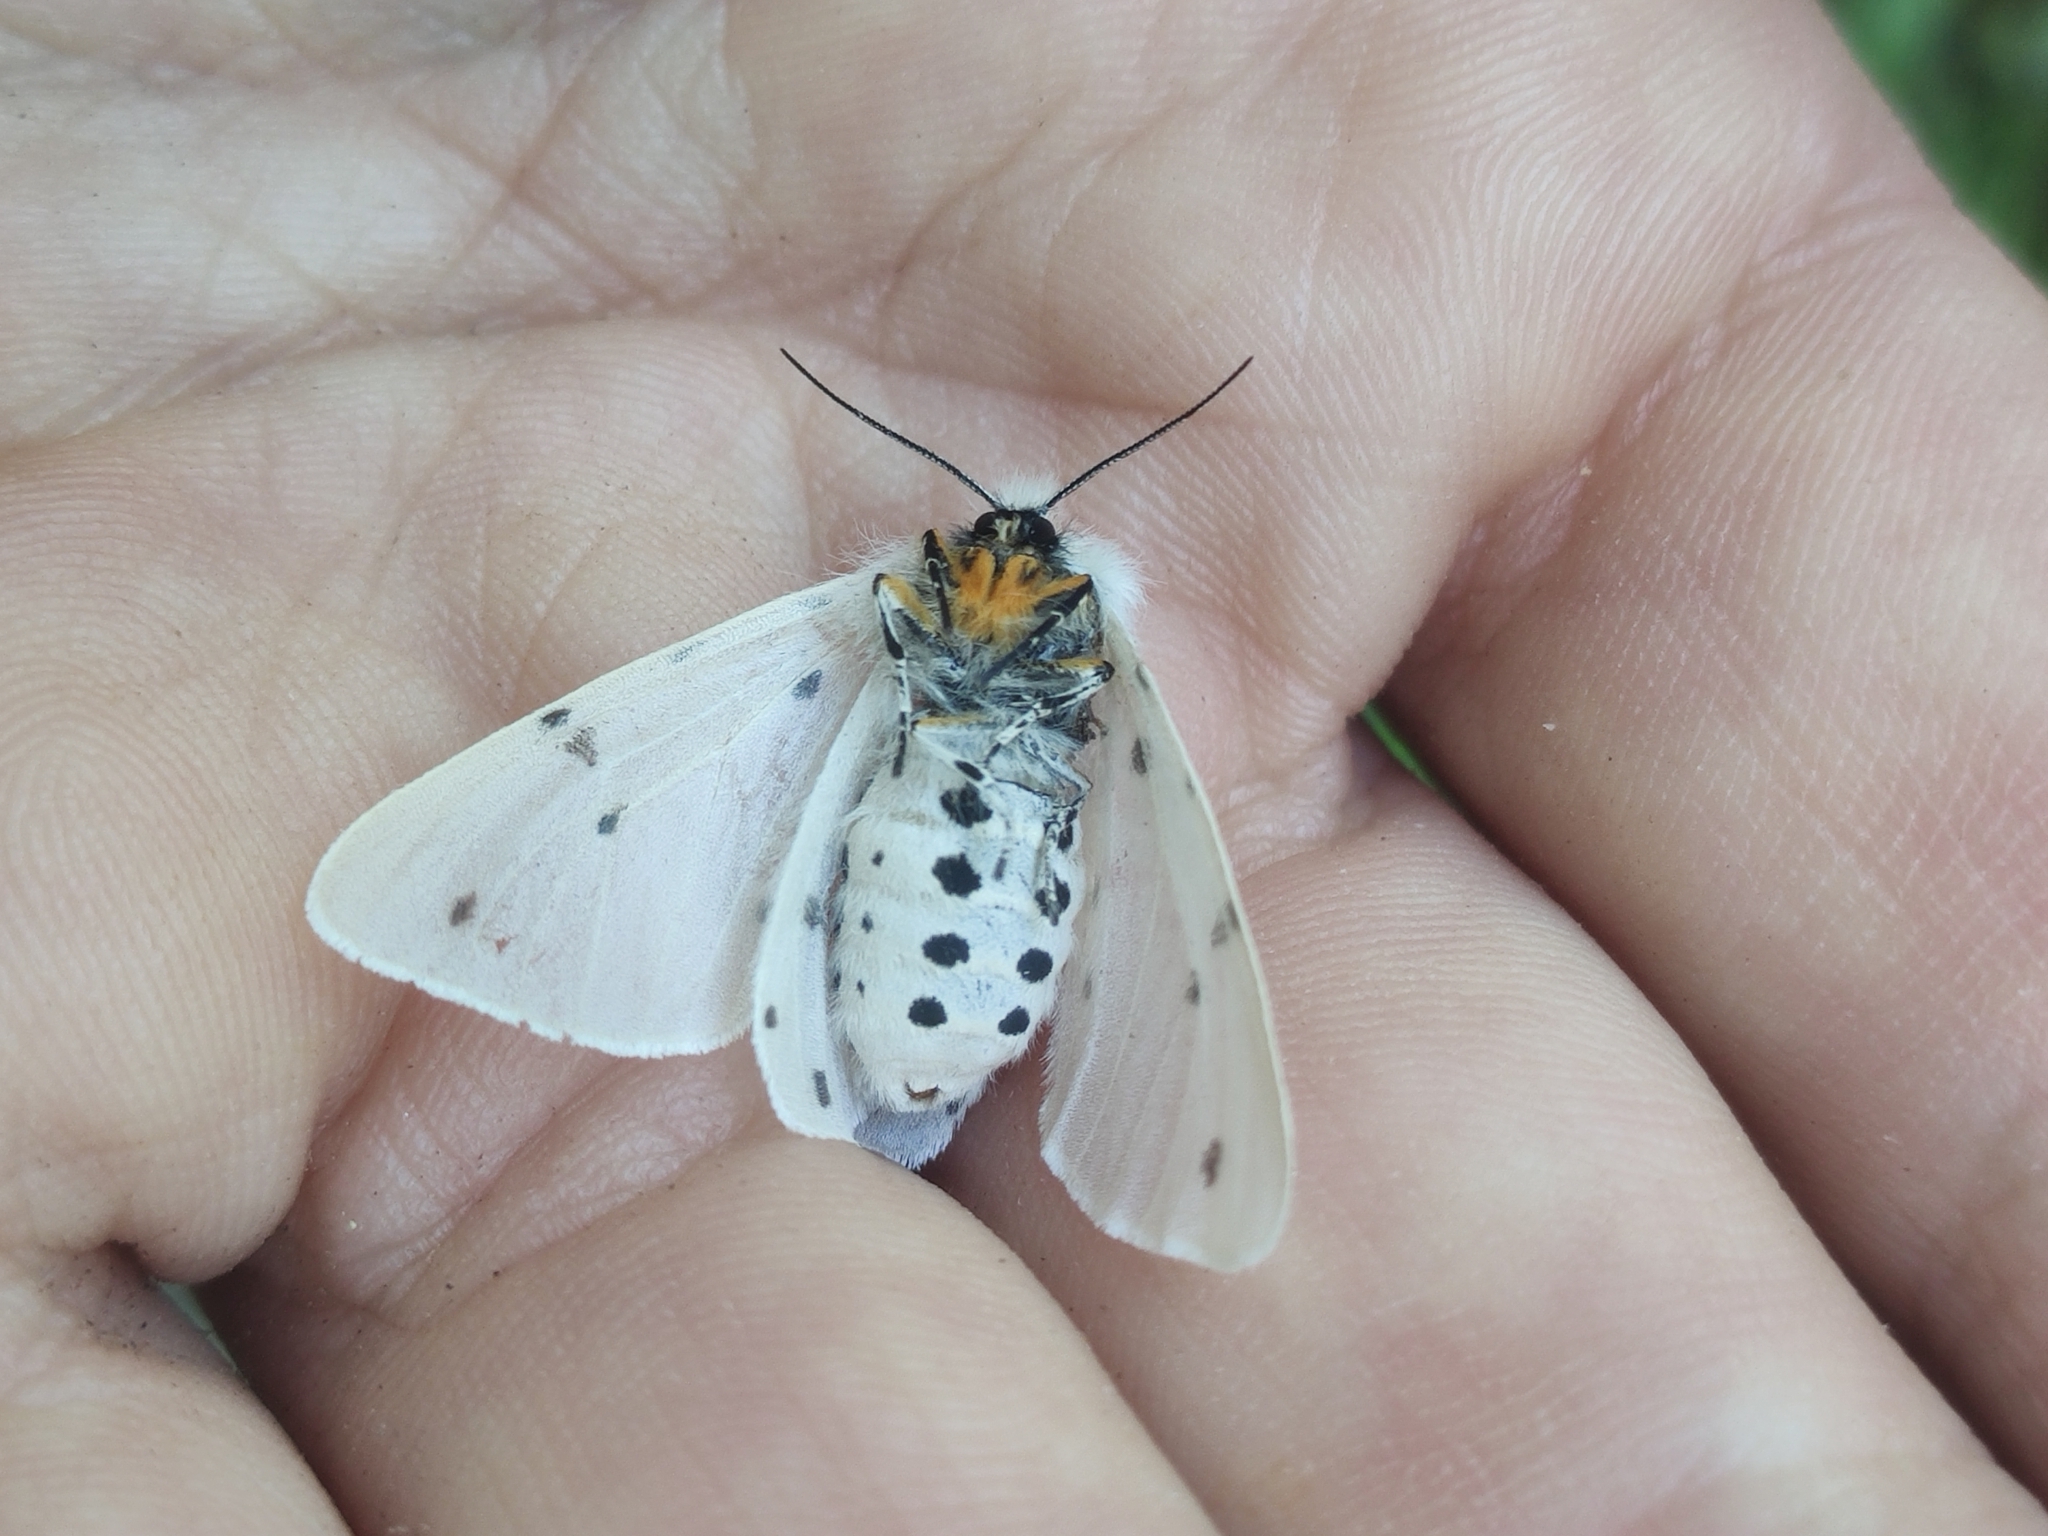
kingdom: Animalia
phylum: Arthropoda
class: Insecta
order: Lepidoptera
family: Erebidae
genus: Diaphora
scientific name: Diaphora mendica
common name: Muslin moth
